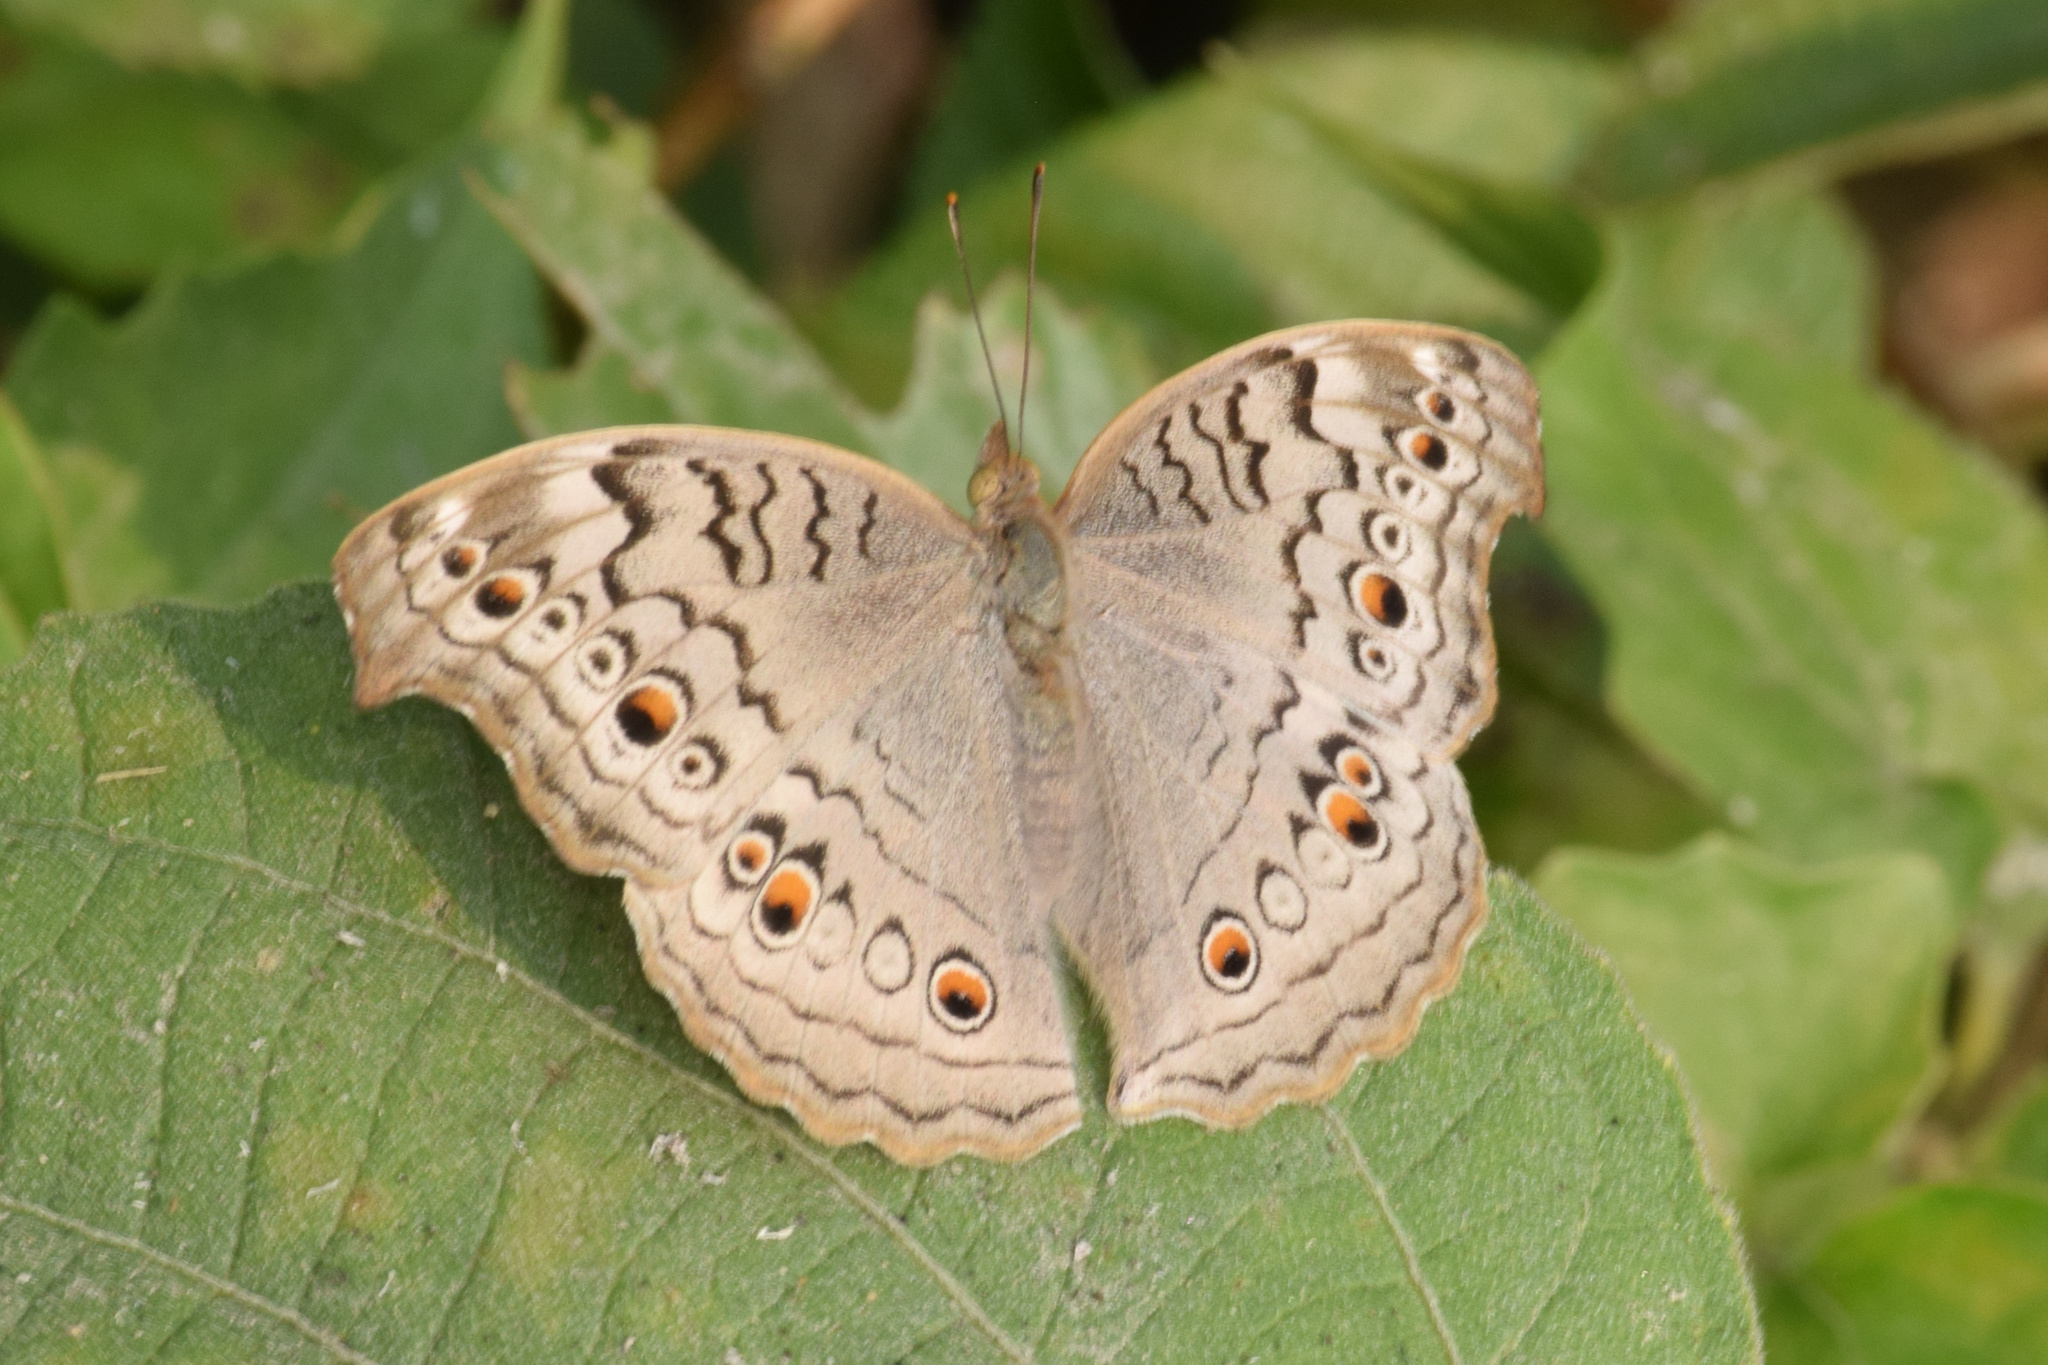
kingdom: Animalia
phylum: Arthropoda
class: Insecta
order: Lepidoptera
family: Nymphalidae
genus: Junonia
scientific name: Junonia atlites
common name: Grey pansy
